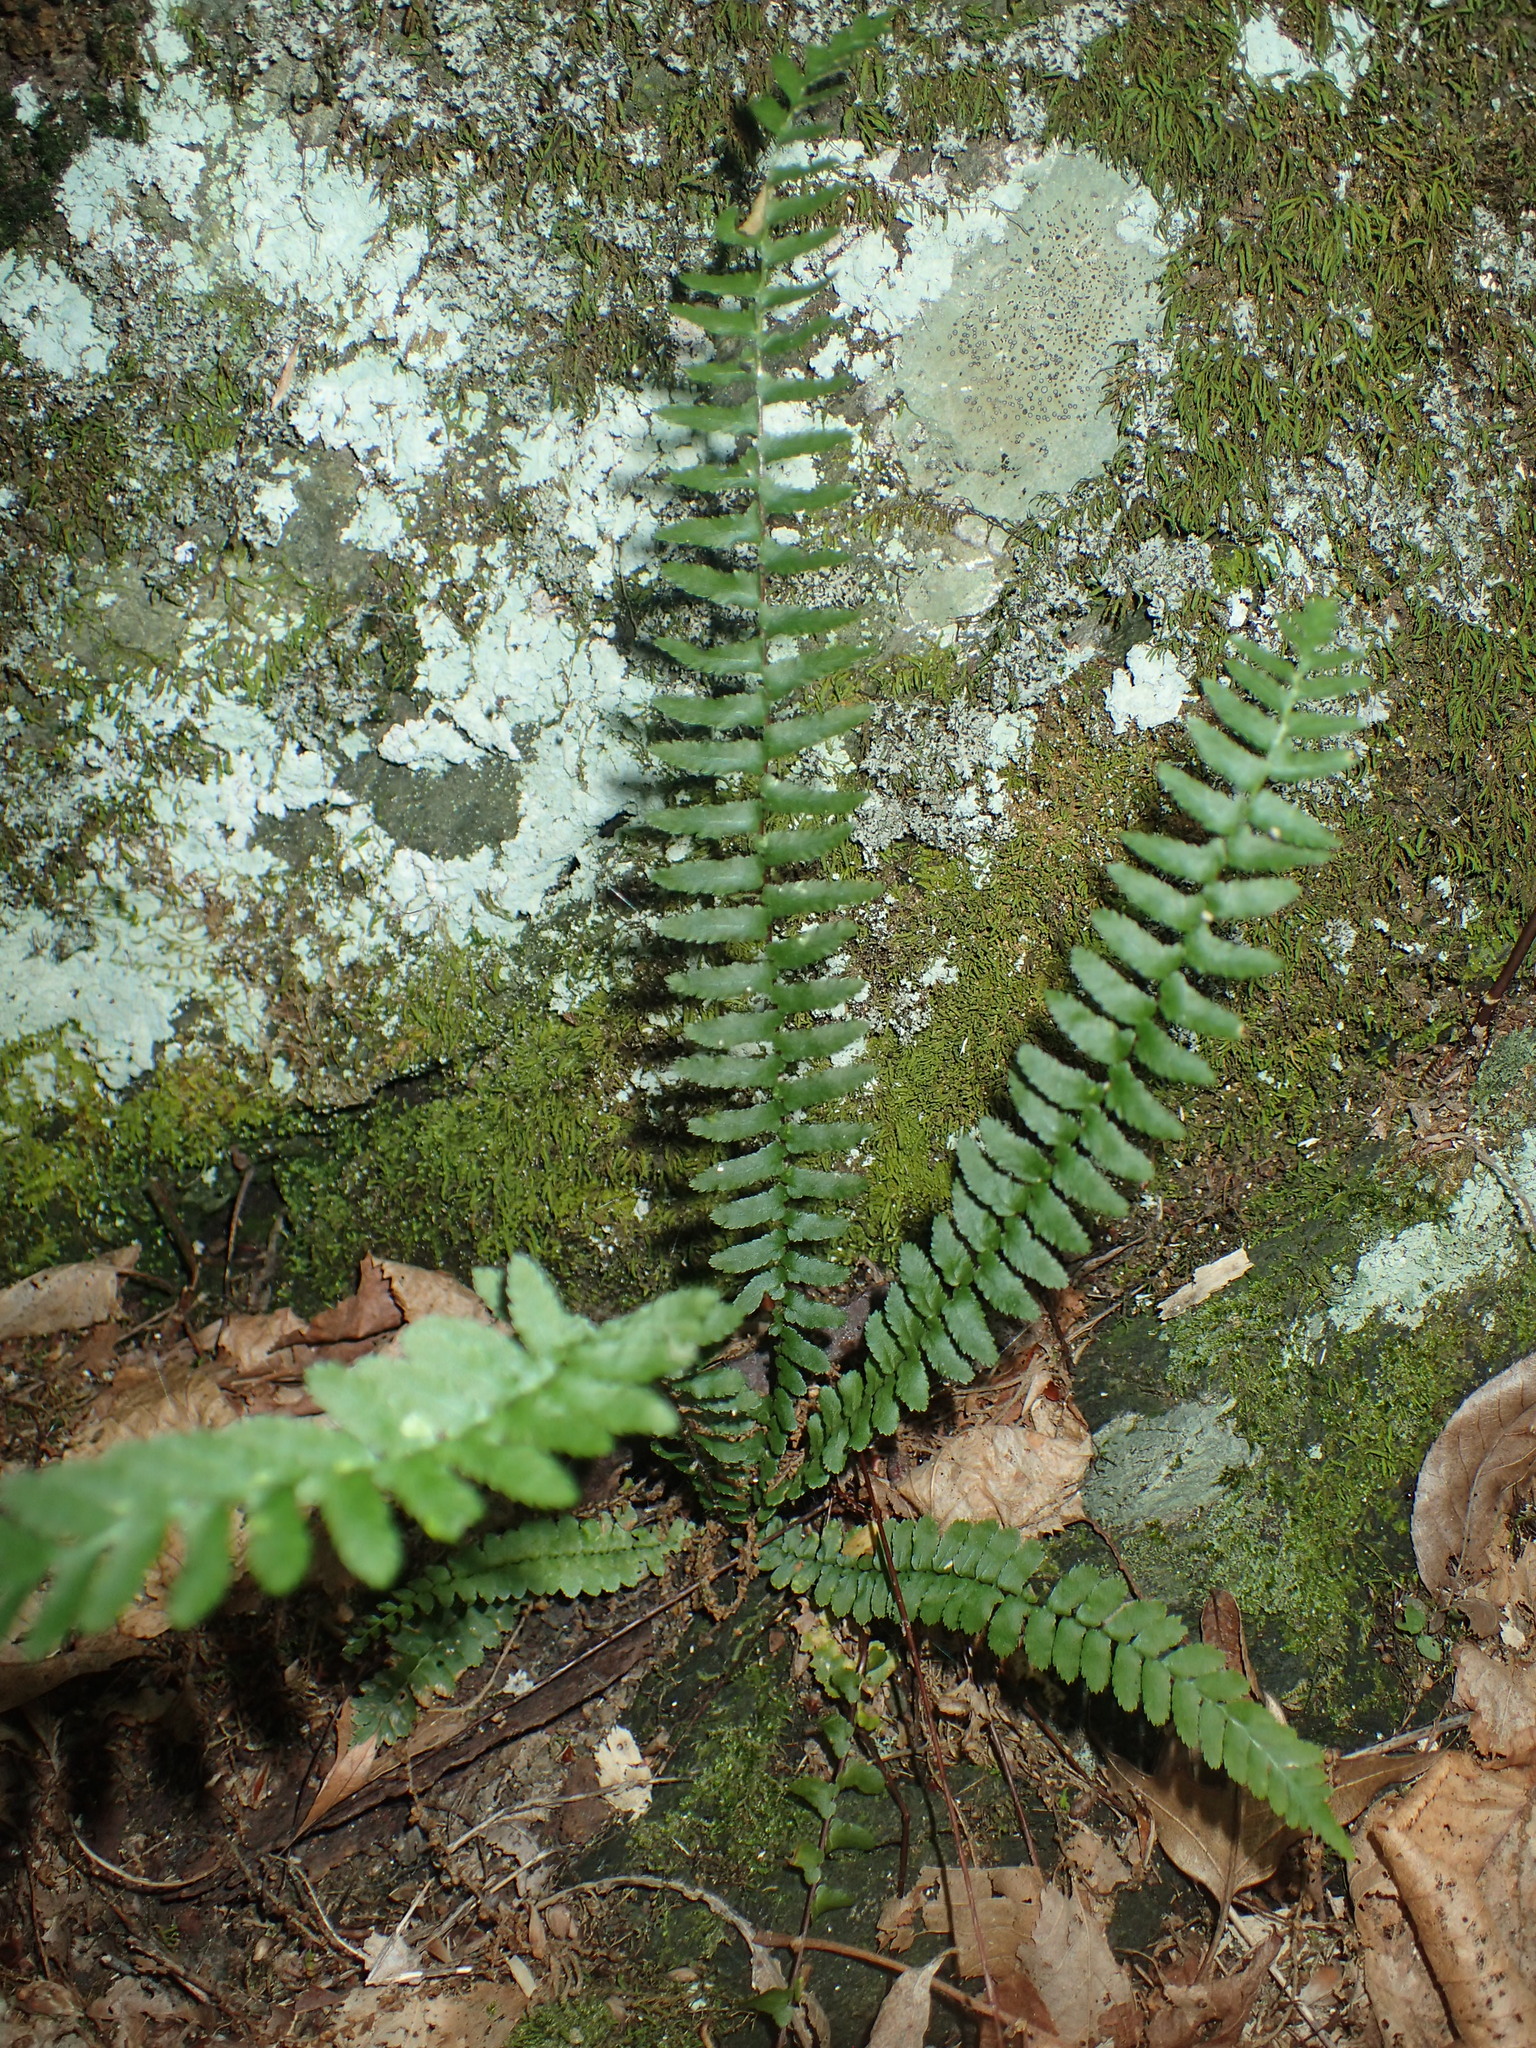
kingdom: Plantae
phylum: Tracheophyta
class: Polypodiopsida
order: Polypodiales
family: Aspleniaceae
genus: Asplenium
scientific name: Asplenium platyneuron
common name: Ebony spleenwort
